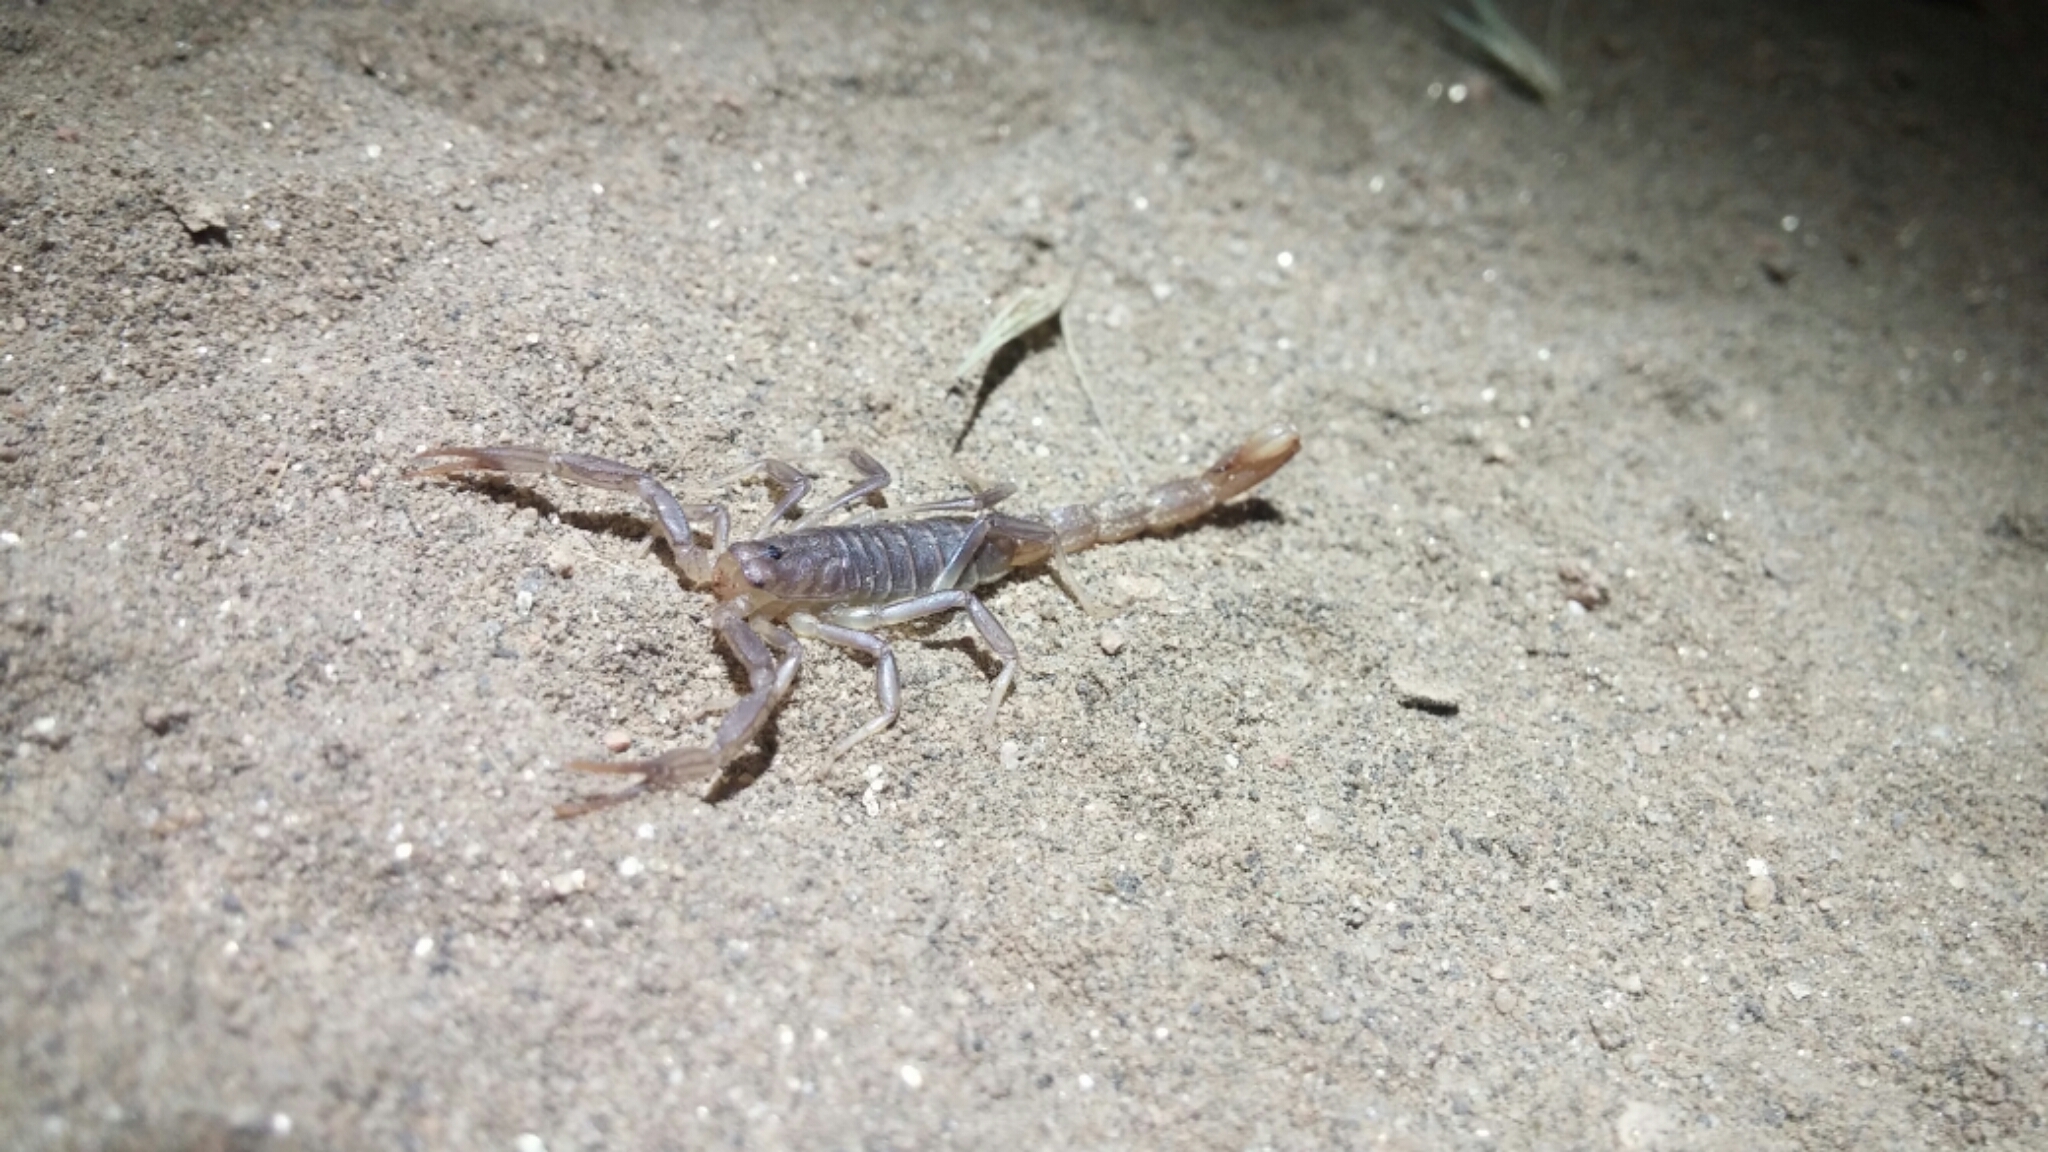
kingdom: Animalia
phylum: Arthropoda
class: Arachnida
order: Scorpiones
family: Vaejovidae
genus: Paravaejovis
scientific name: Paravaejovis puritanus
